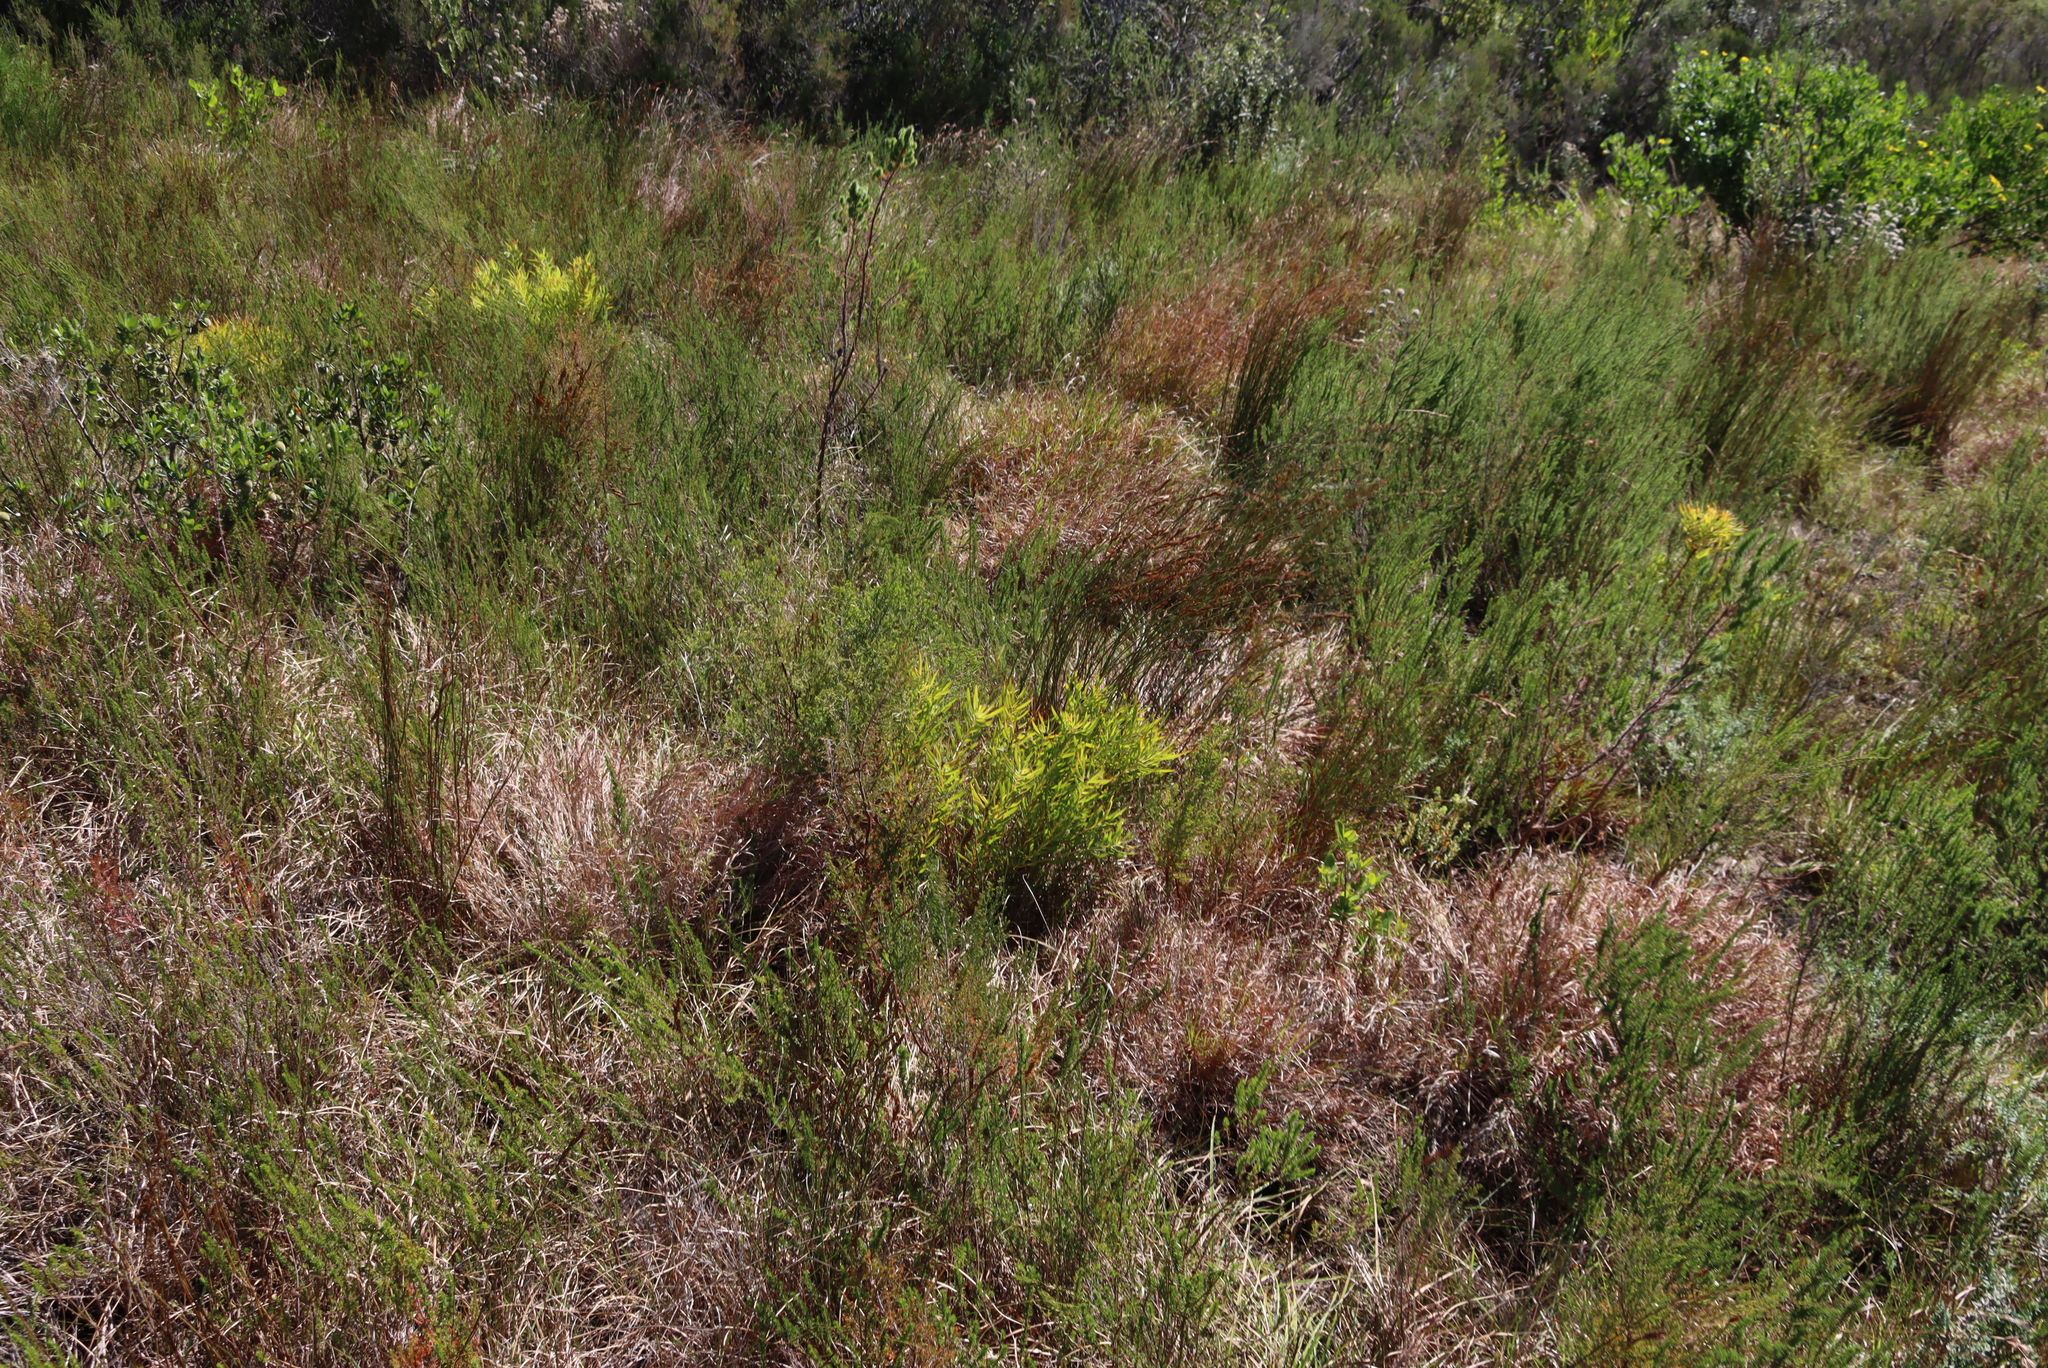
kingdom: Plantae
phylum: Tracheophyta
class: Liliopsida
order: Poales
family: Poaceae
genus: Themeda
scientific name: Themeda triandra
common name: Kangaroo grass
